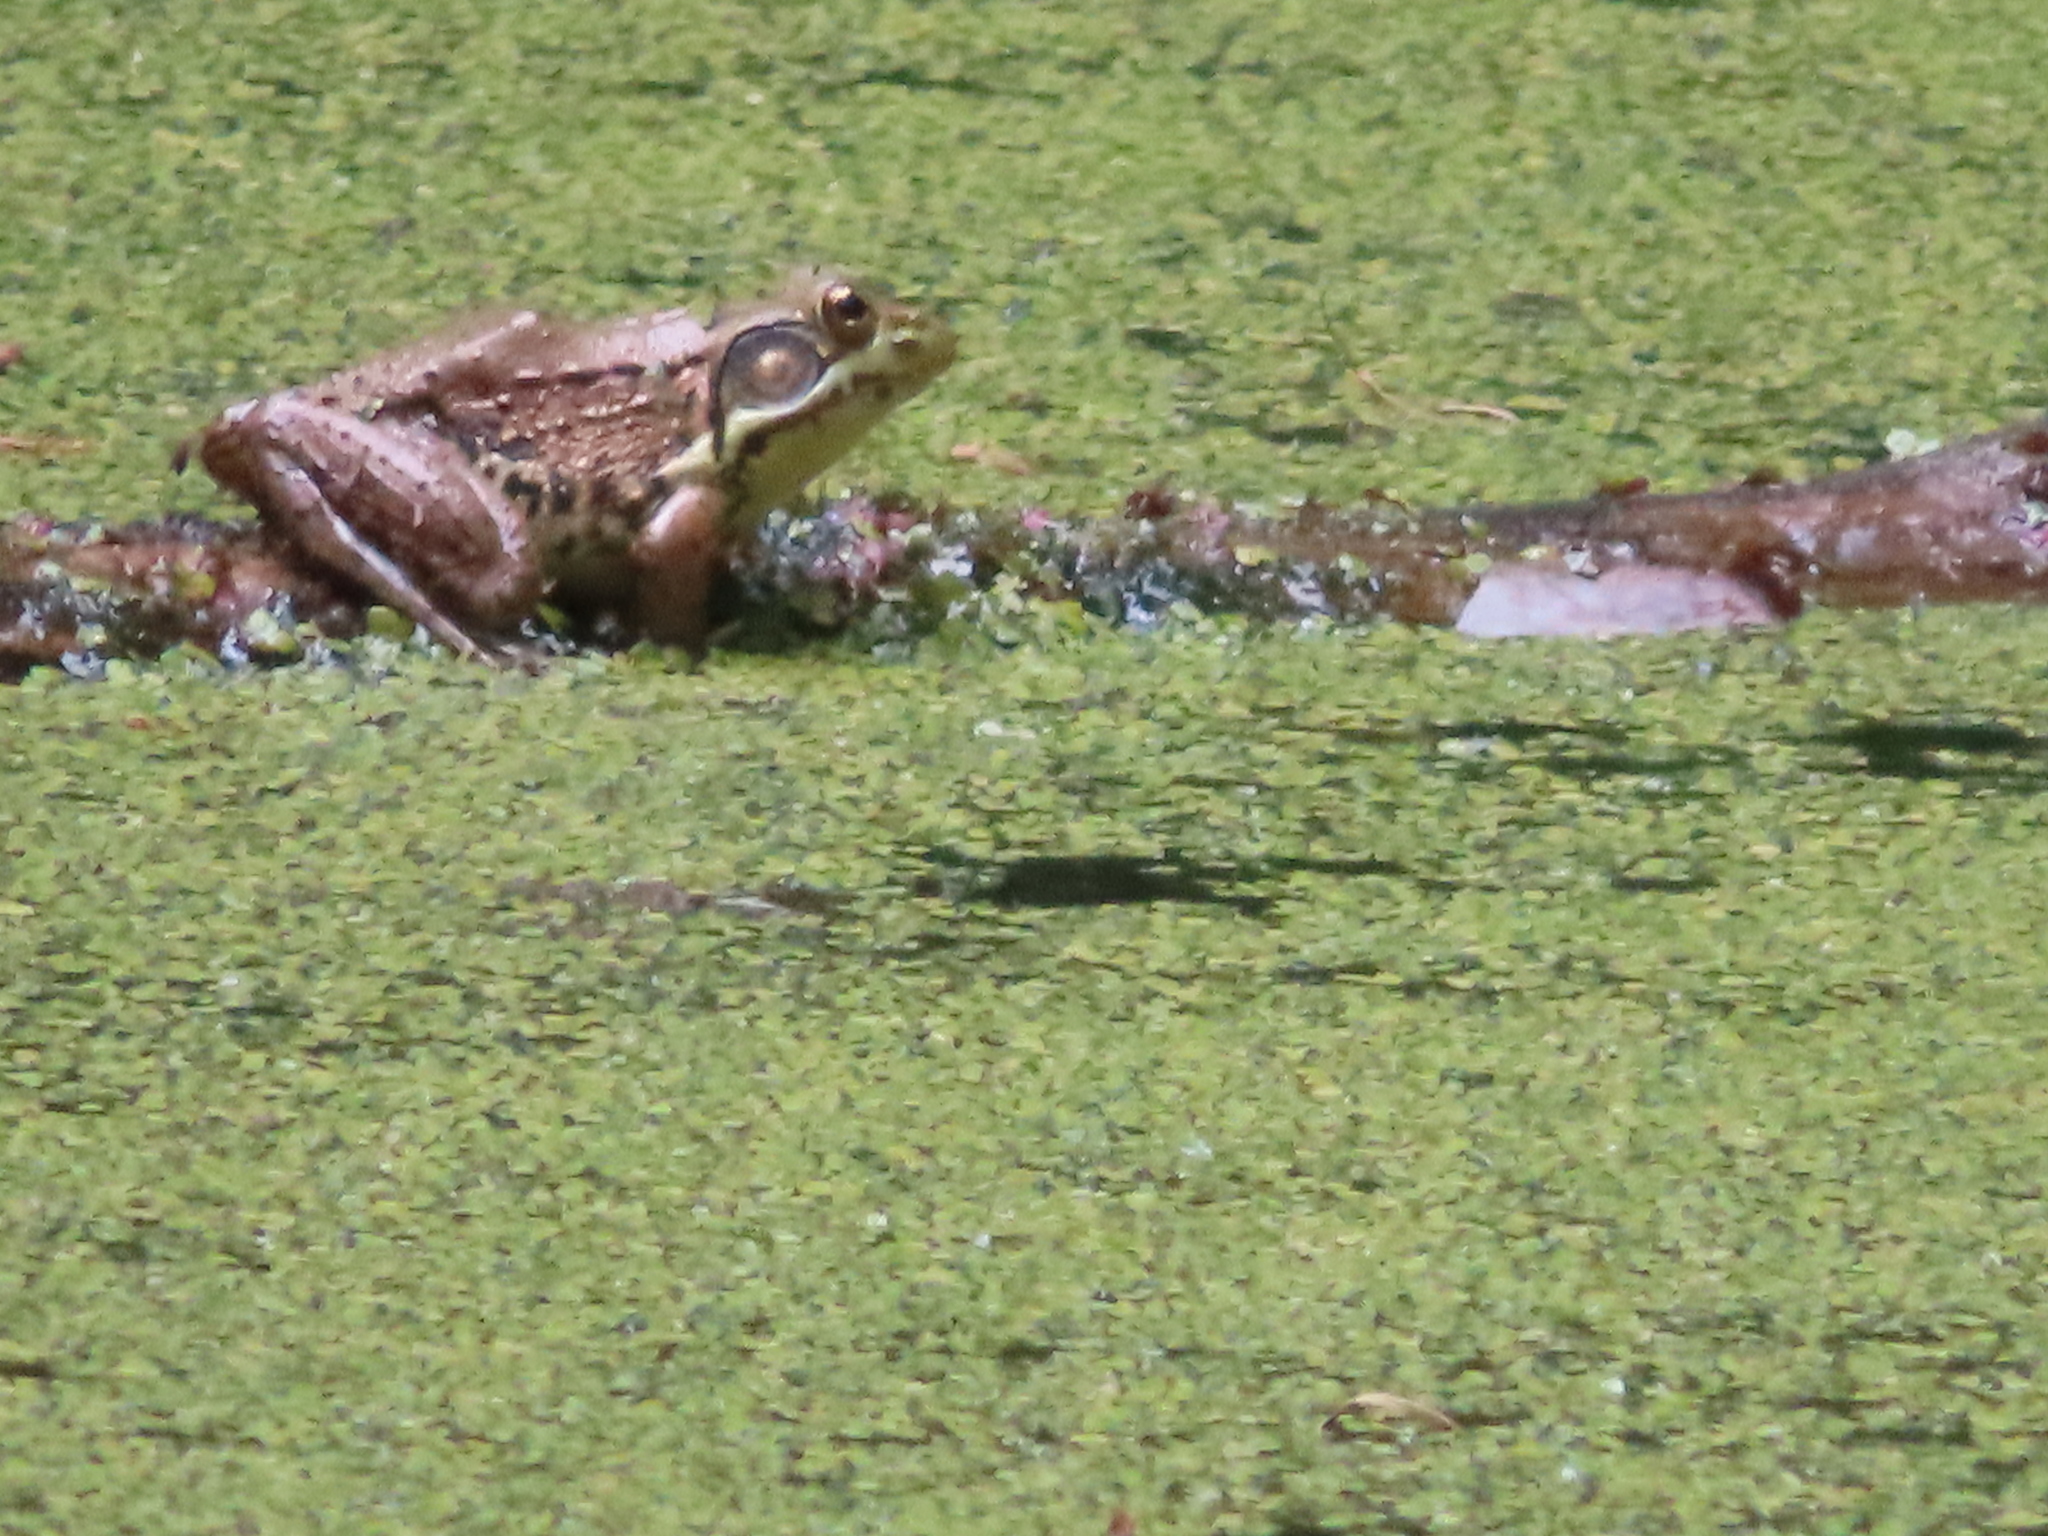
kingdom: Animalia
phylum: Chordata
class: Amphibia
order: Anura
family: Ranidae
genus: Lithobates
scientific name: Lithobates clamitans
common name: Green frog
